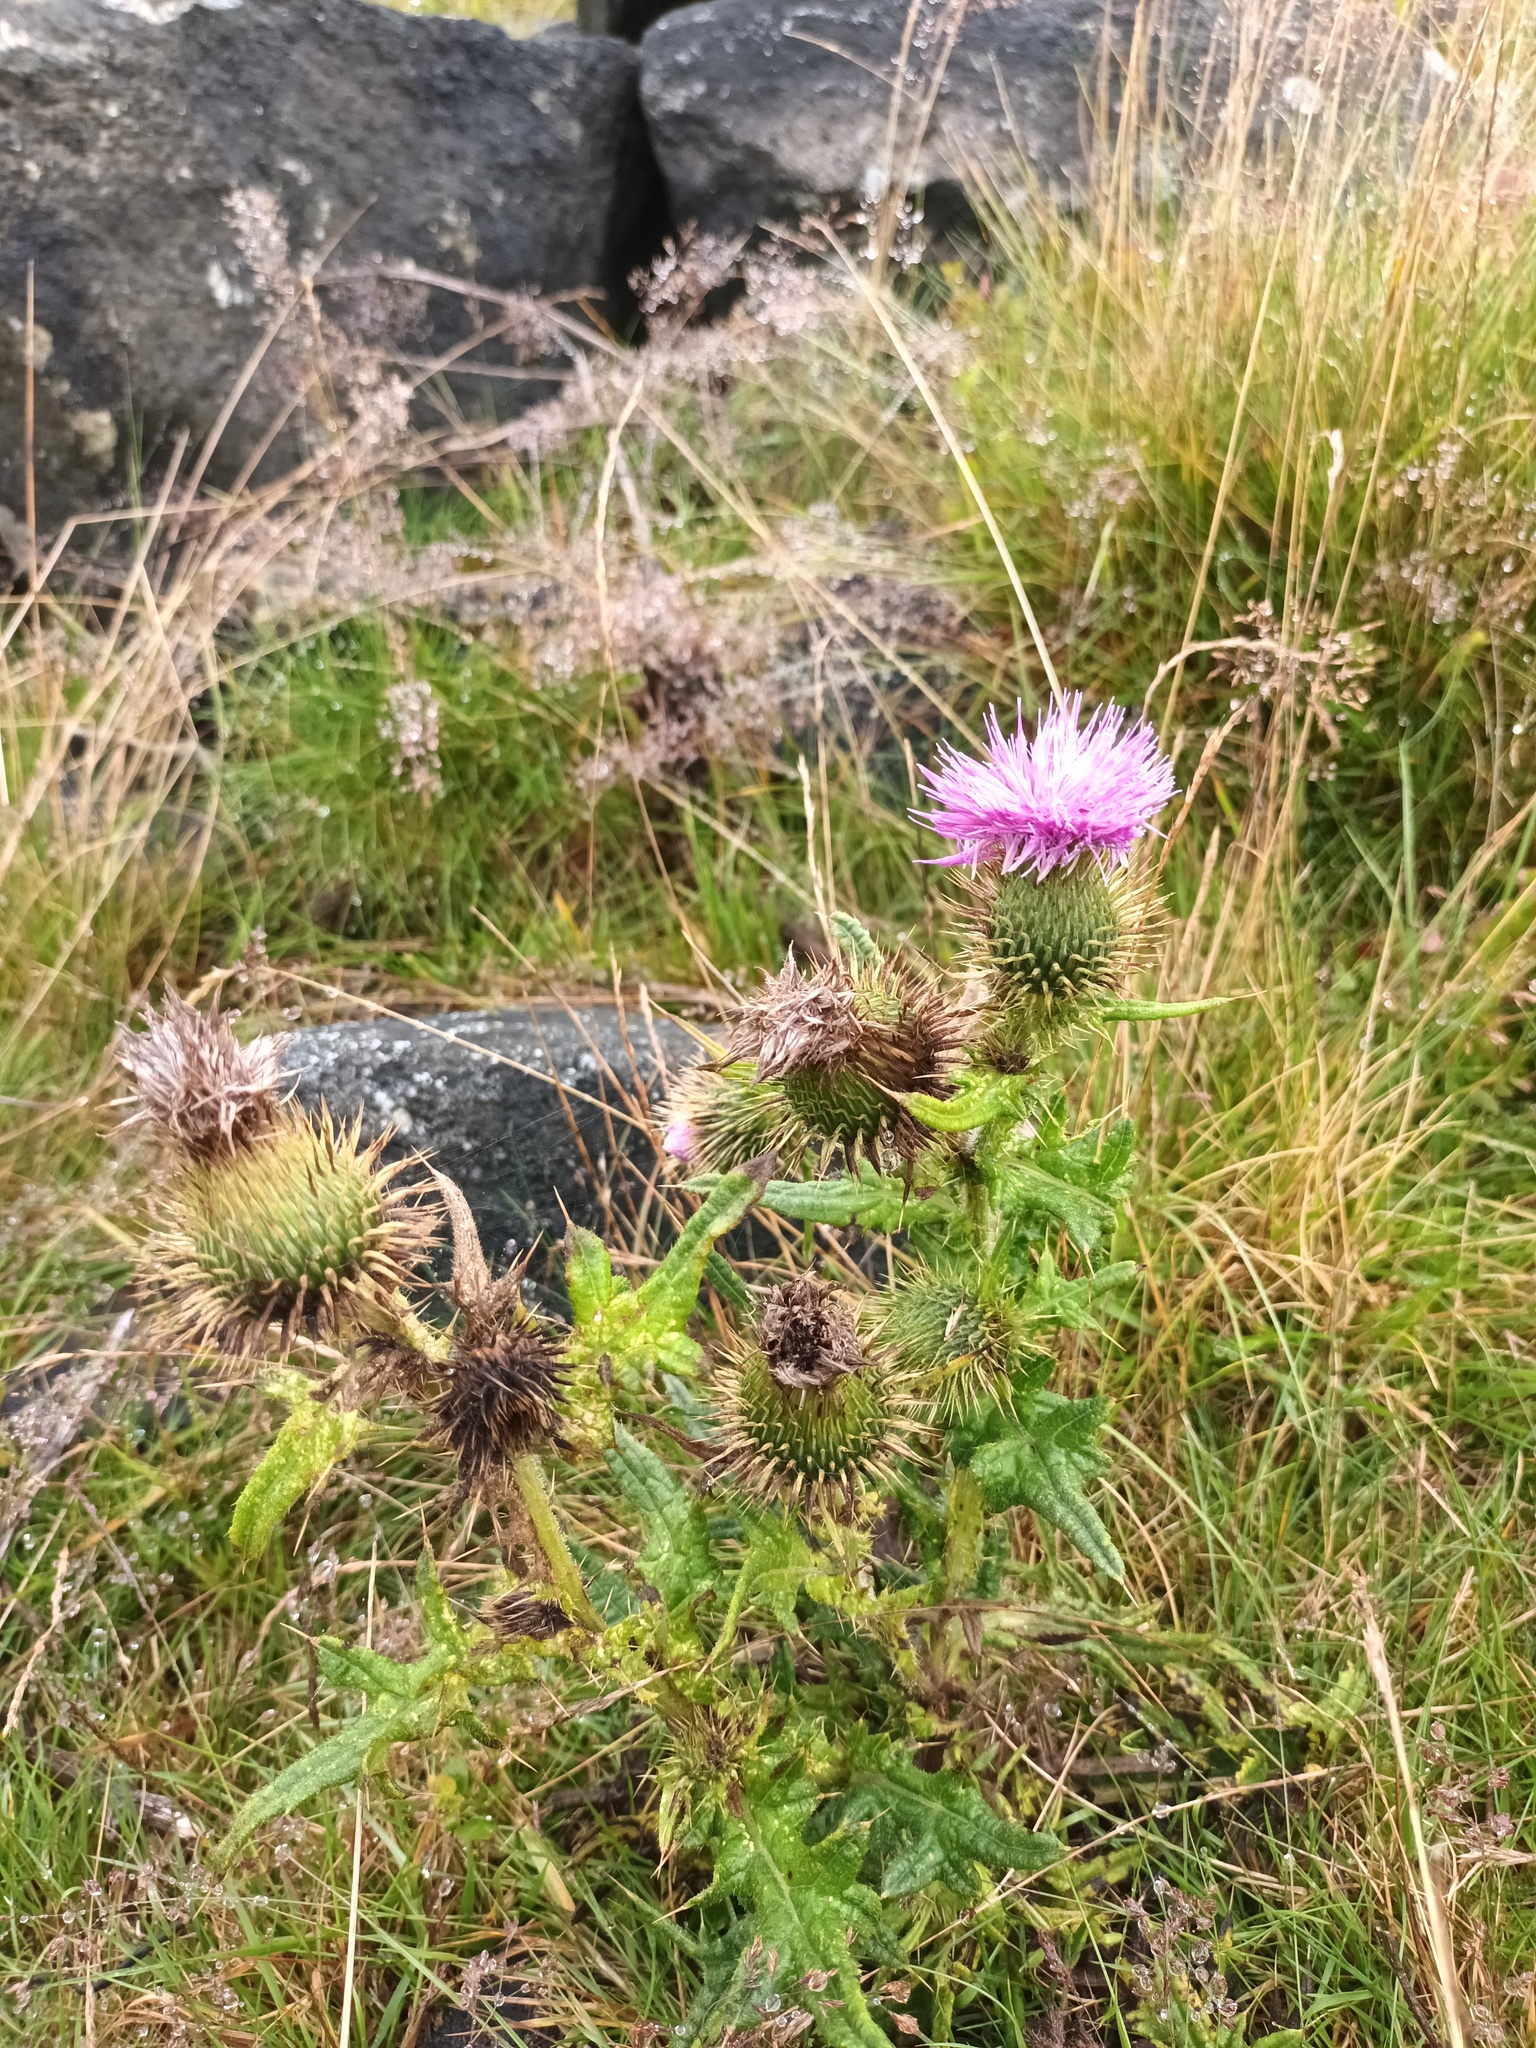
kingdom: Plantae
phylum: Tracheophyta
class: Magnoliopsida
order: Asterales
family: Asteraceae
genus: Cirsium
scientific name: Cirsium vulgare
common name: Bull thistle
